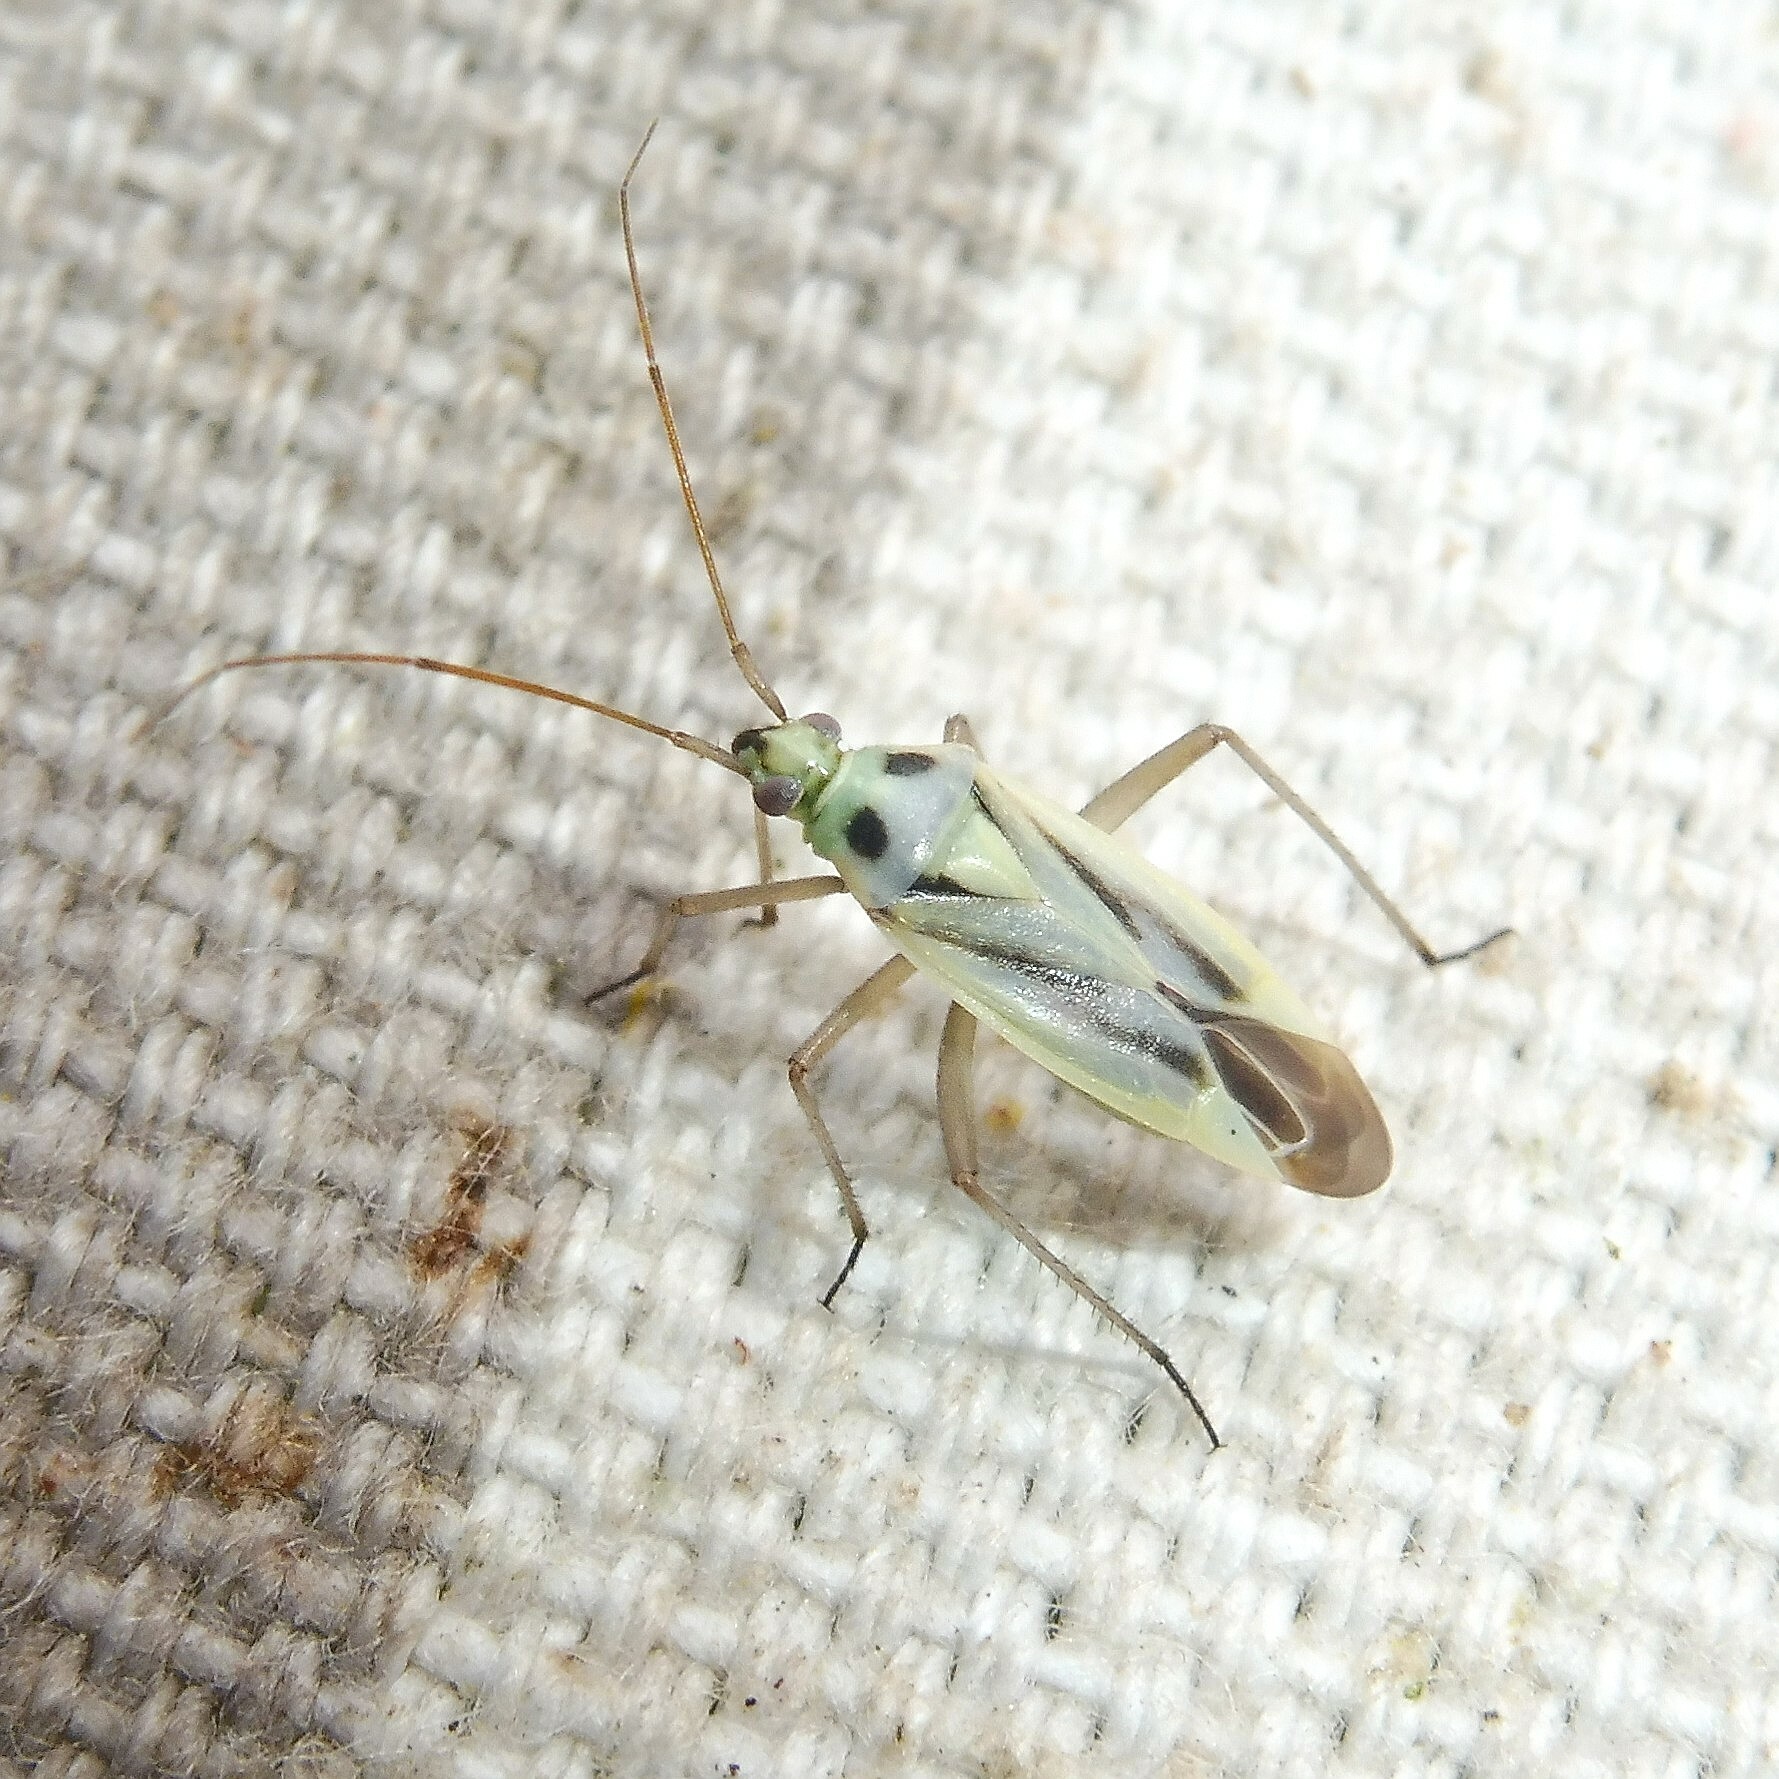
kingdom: Animalia
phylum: Arthropoda
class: Insecta
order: Hemiptera
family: Miridae
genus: Stenotus
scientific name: Stenotus binotatus
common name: Plant bug
